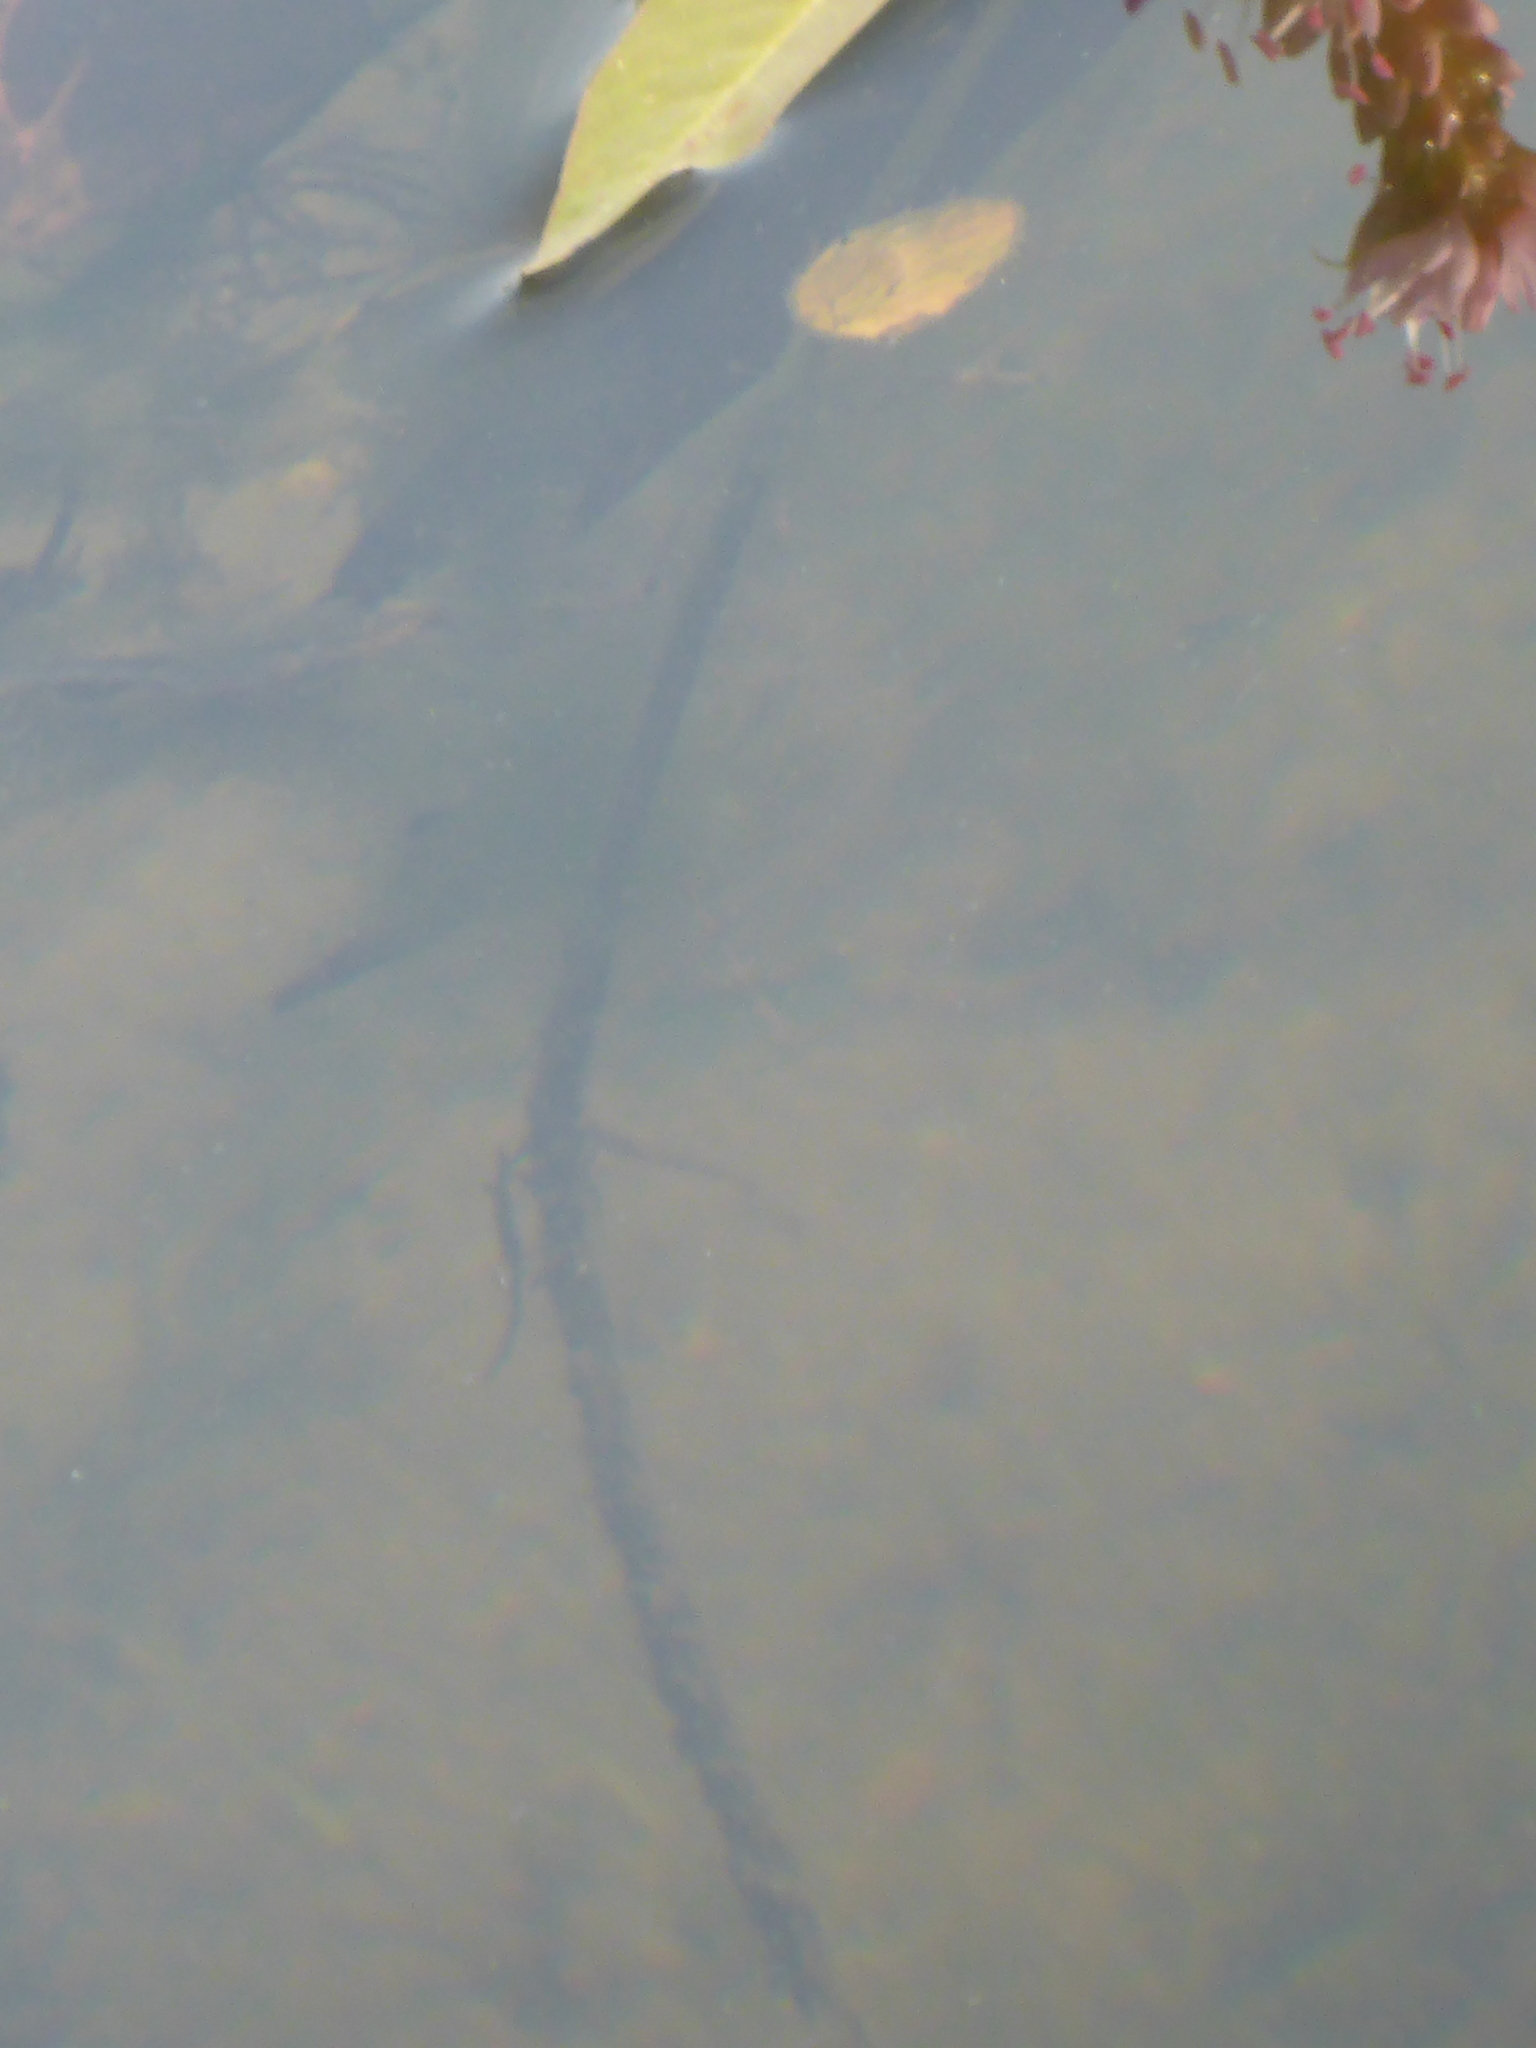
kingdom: Plantae
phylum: Tracheophyta
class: Magnoliopsida
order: Caryophyllales
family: Polygonaceae
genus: Persicaria
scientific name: Persicaria amphibia
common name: Amphibious bistort
